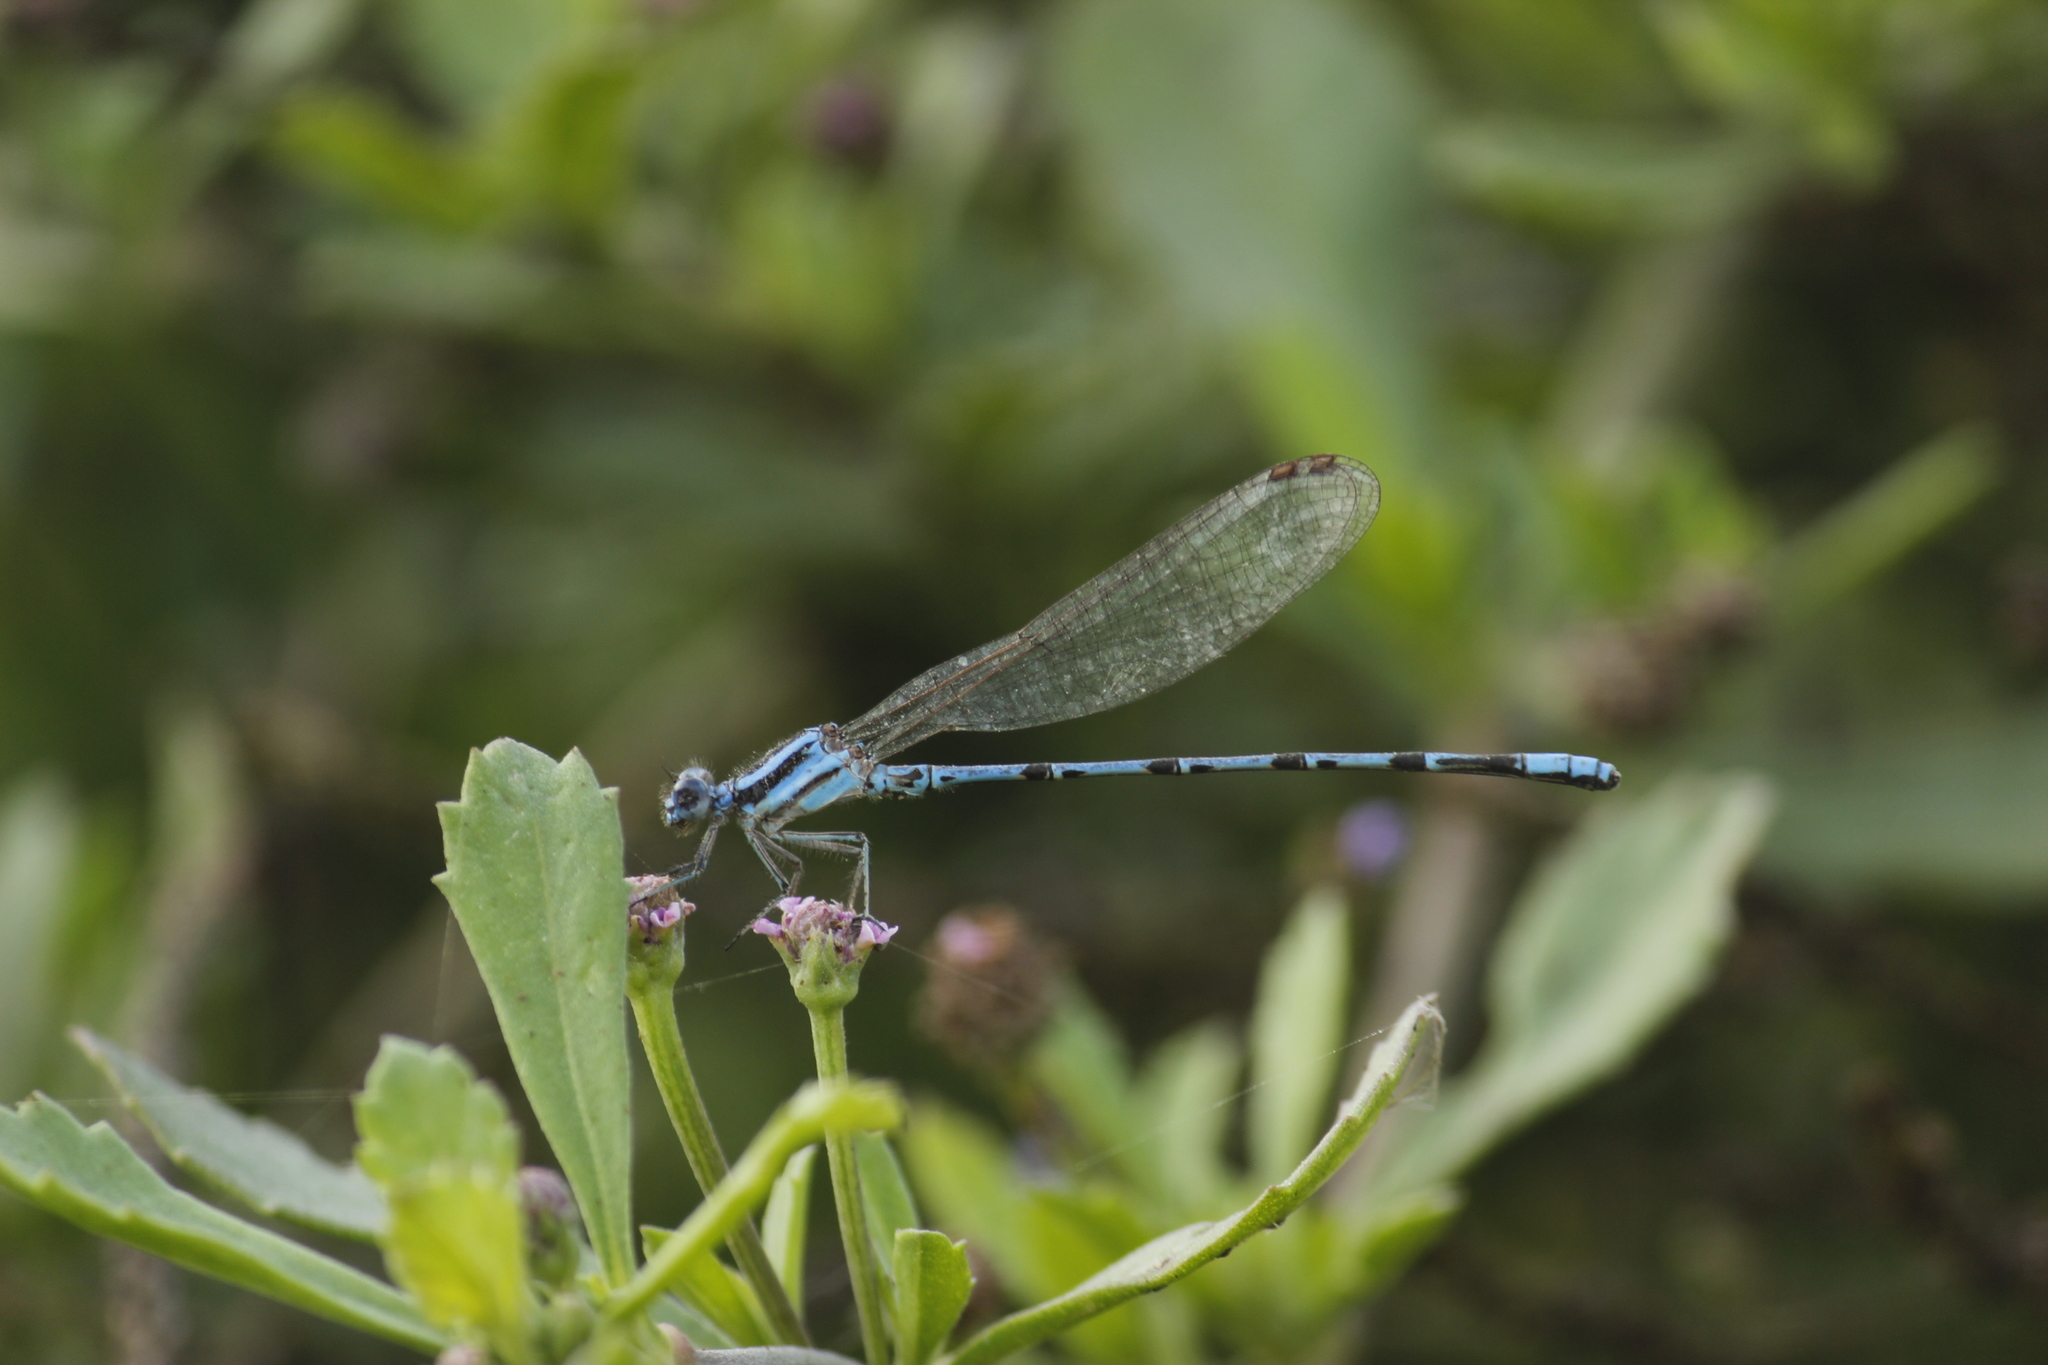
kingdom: Animalia
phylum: Arthropoda
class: Insecta
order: Odonata
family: Coenagrionidae
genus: Argia
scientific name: Argia inculta
